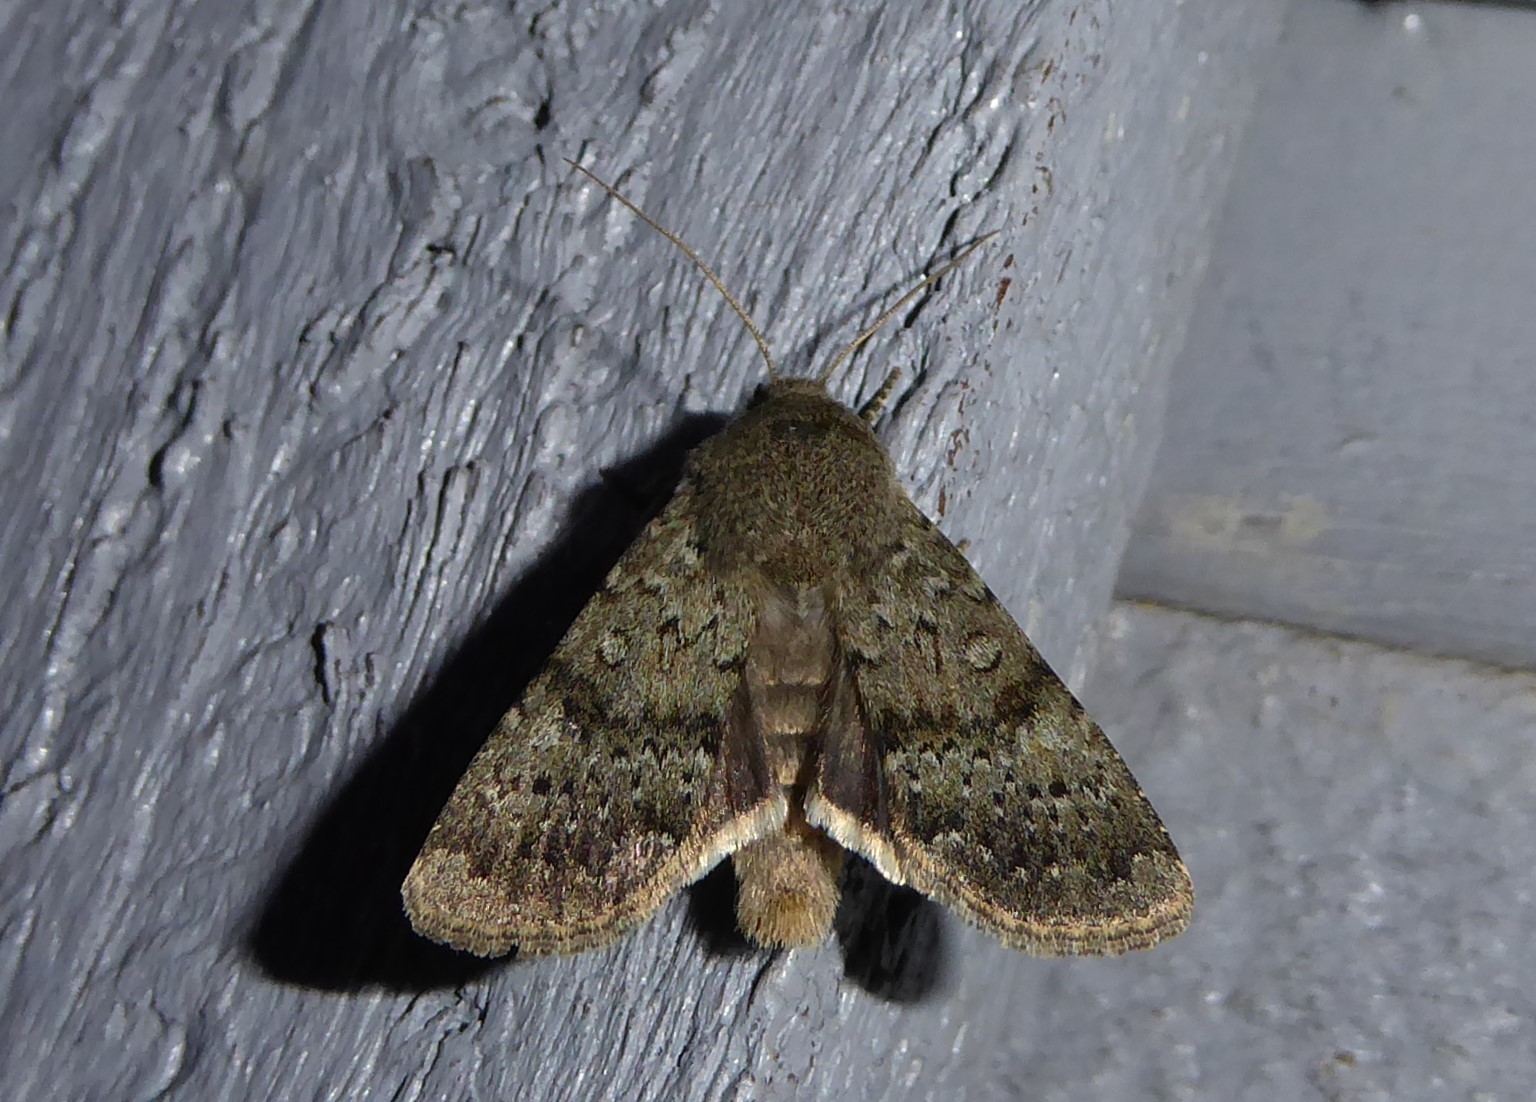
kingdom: Animalia
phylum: Arthropoda
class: Insecta
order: Lepidoptera
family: Noctuidae
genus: Ichneutica
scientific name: Ichneutica moderata
